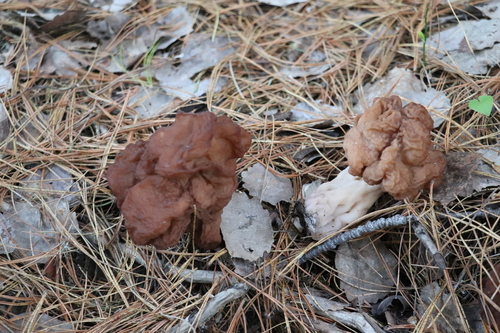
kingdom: Fungi
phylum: Ascomycota
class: Pezizomycetes
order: Pezizales
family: Discinaceae
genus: Gyromitra
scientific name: Gyromitra esculenta
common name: False morel
